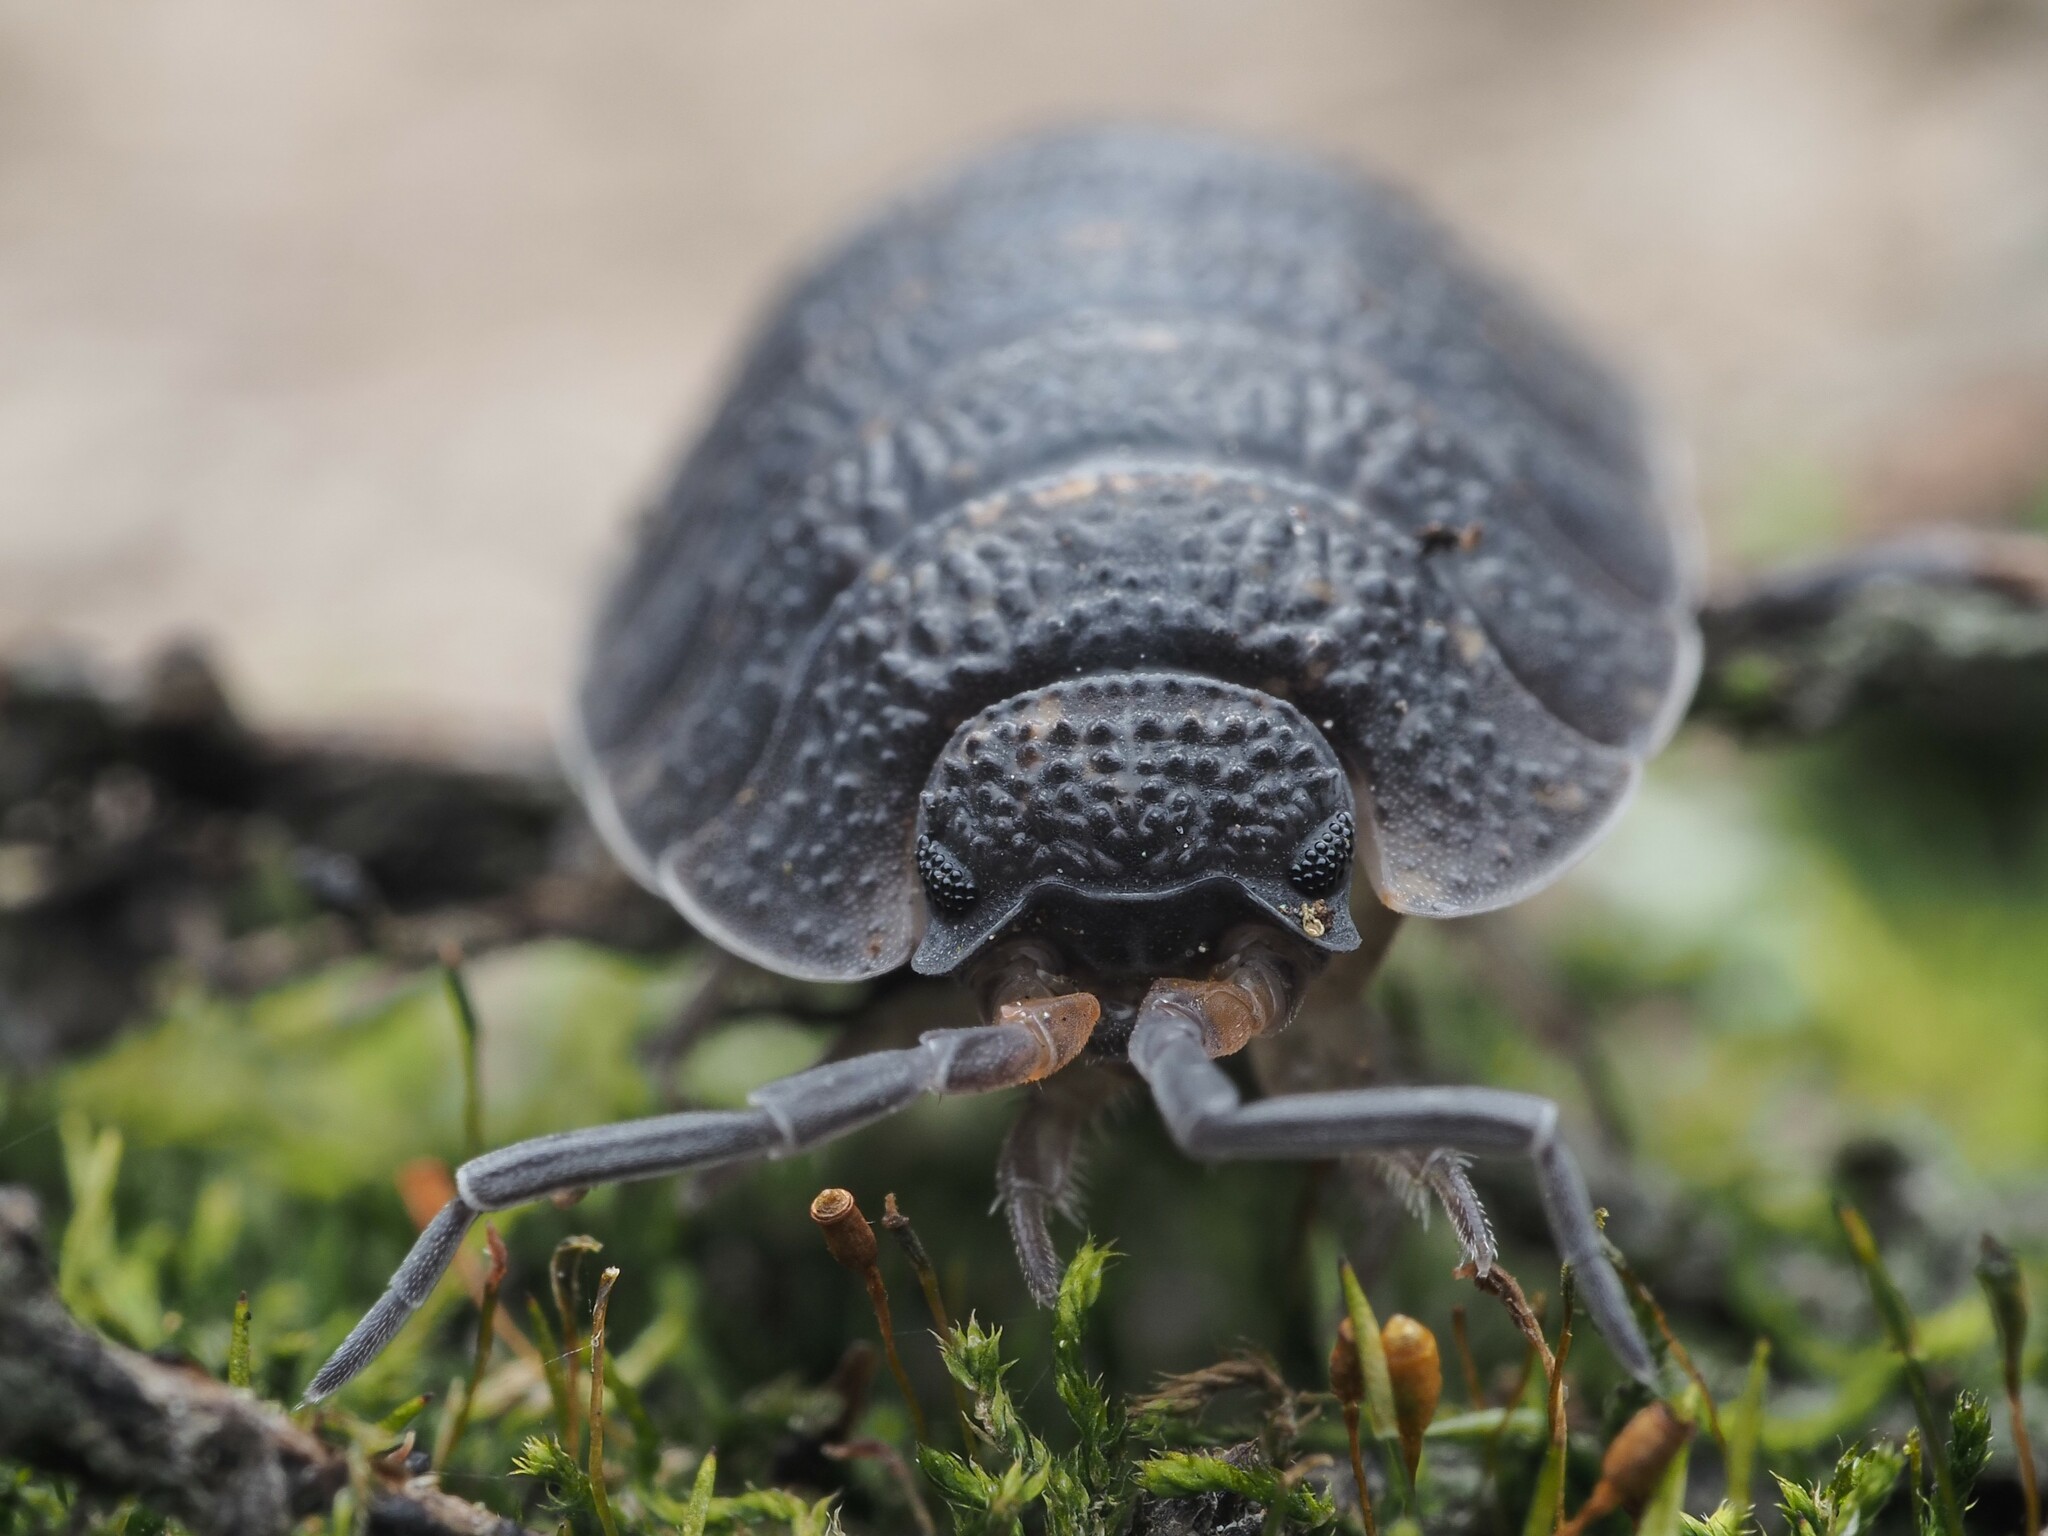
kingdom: Animalia
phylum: Arthropoda
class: Malacostraca
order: Isopoda
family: Porcellionidae
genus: Porcellio
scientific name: Porcellio scaber
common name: Common rough woodlouse
